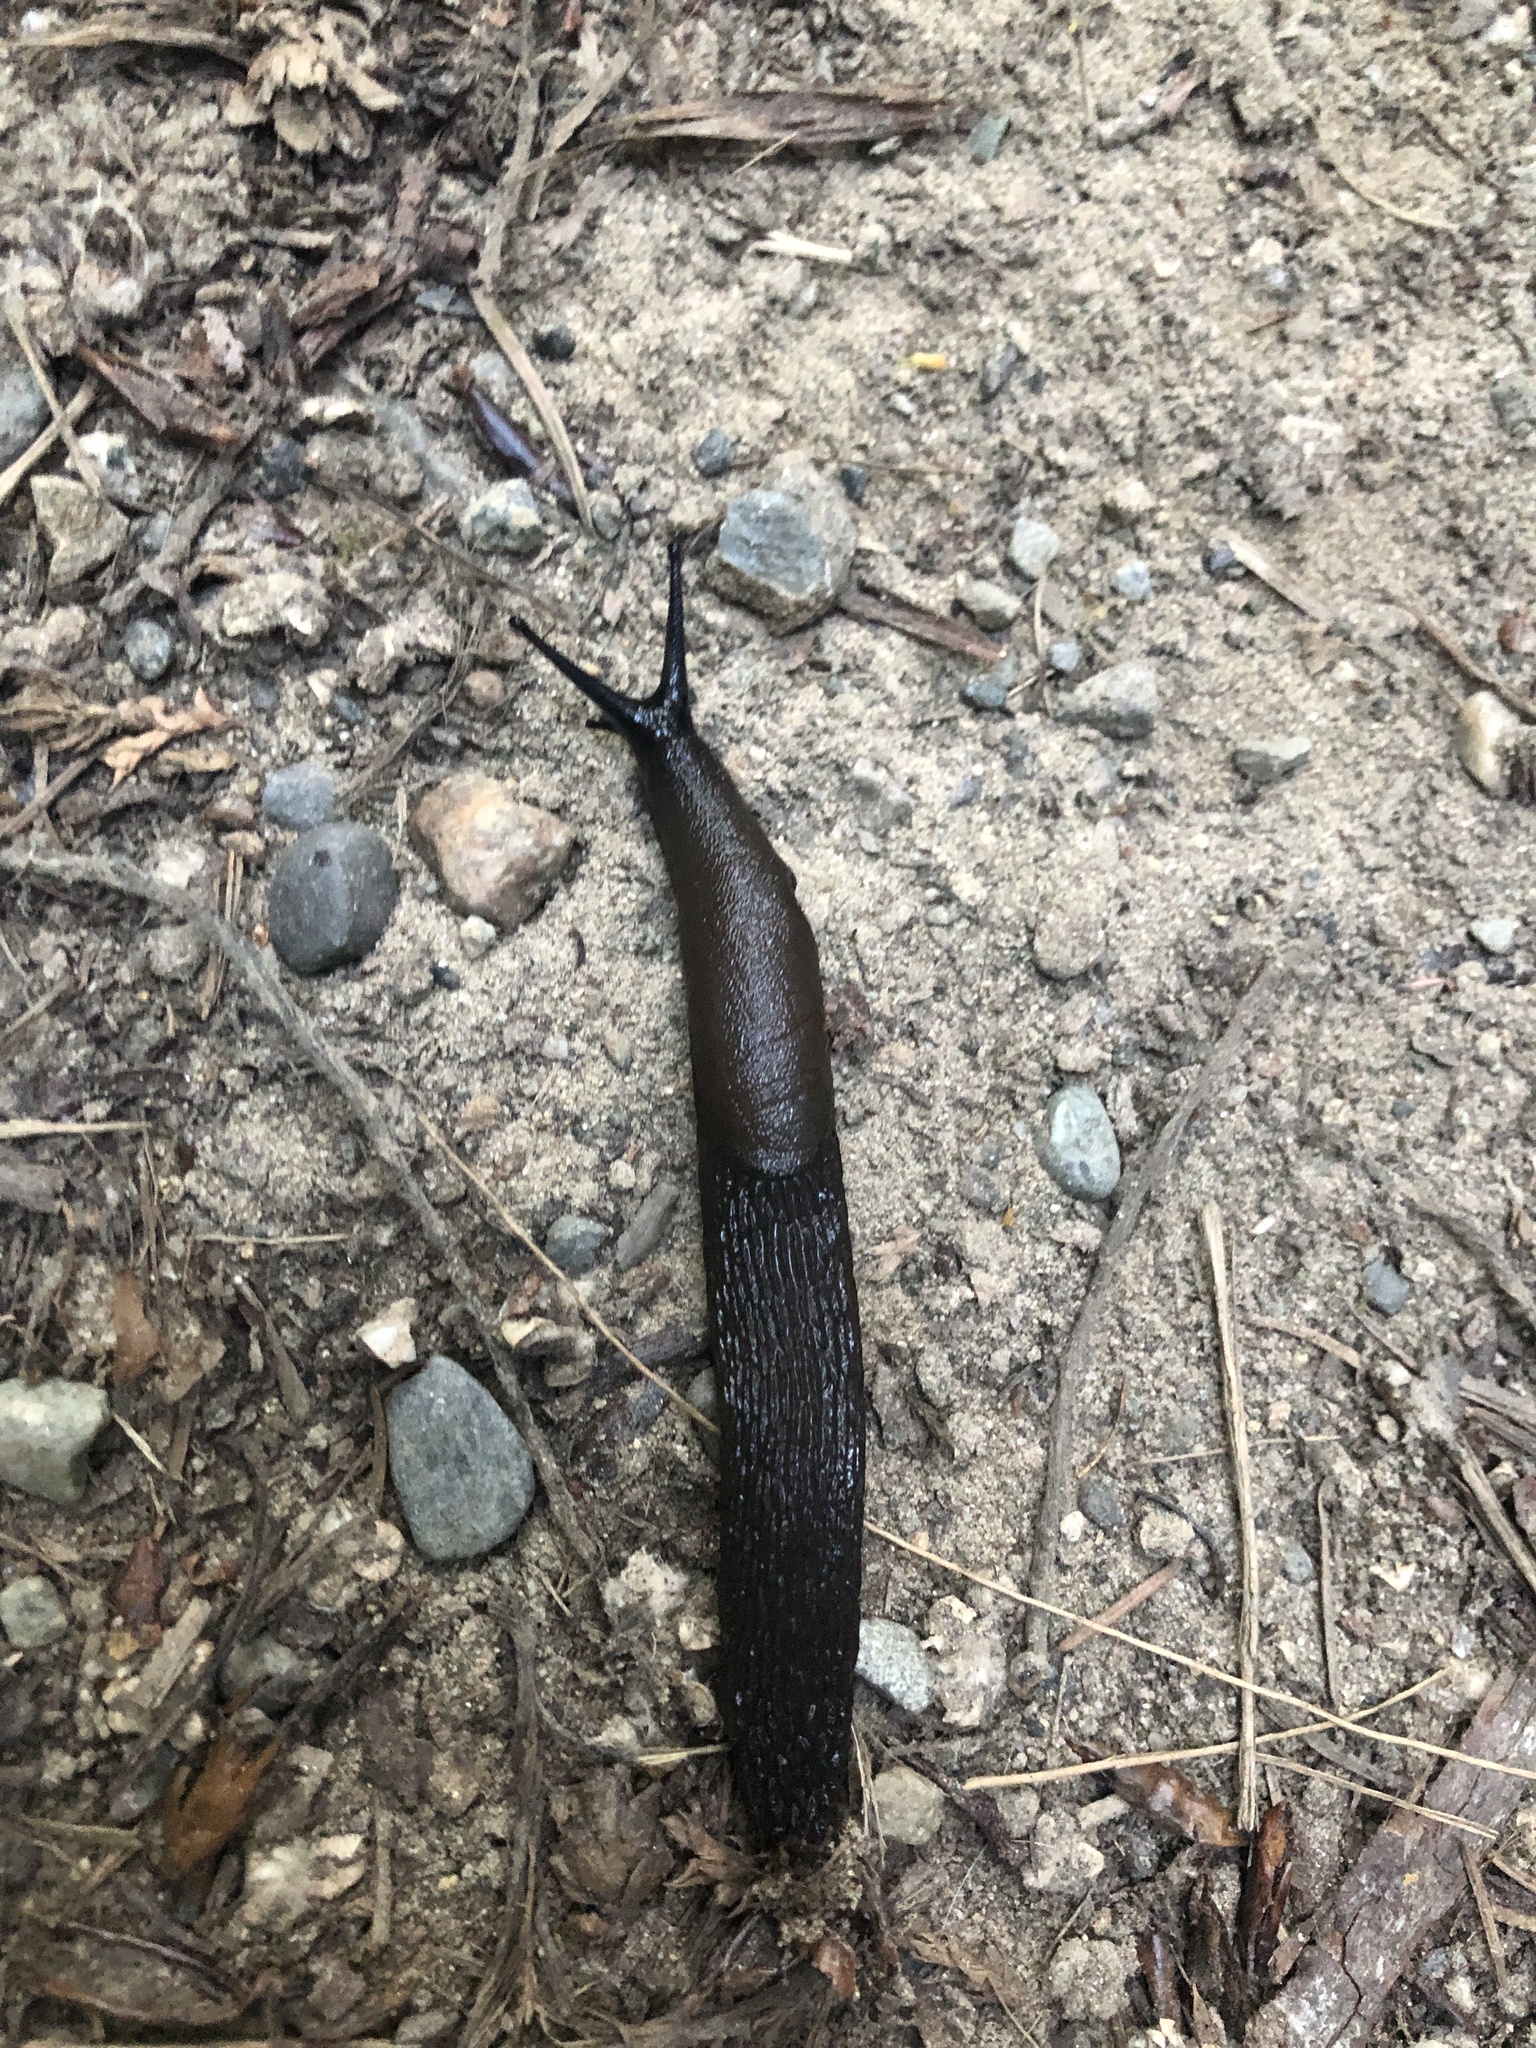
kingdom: Animalia
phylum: Mollusca
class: Gastropoda
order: Stylommatophora
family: Arionidae
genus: Arion
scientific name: Arion
